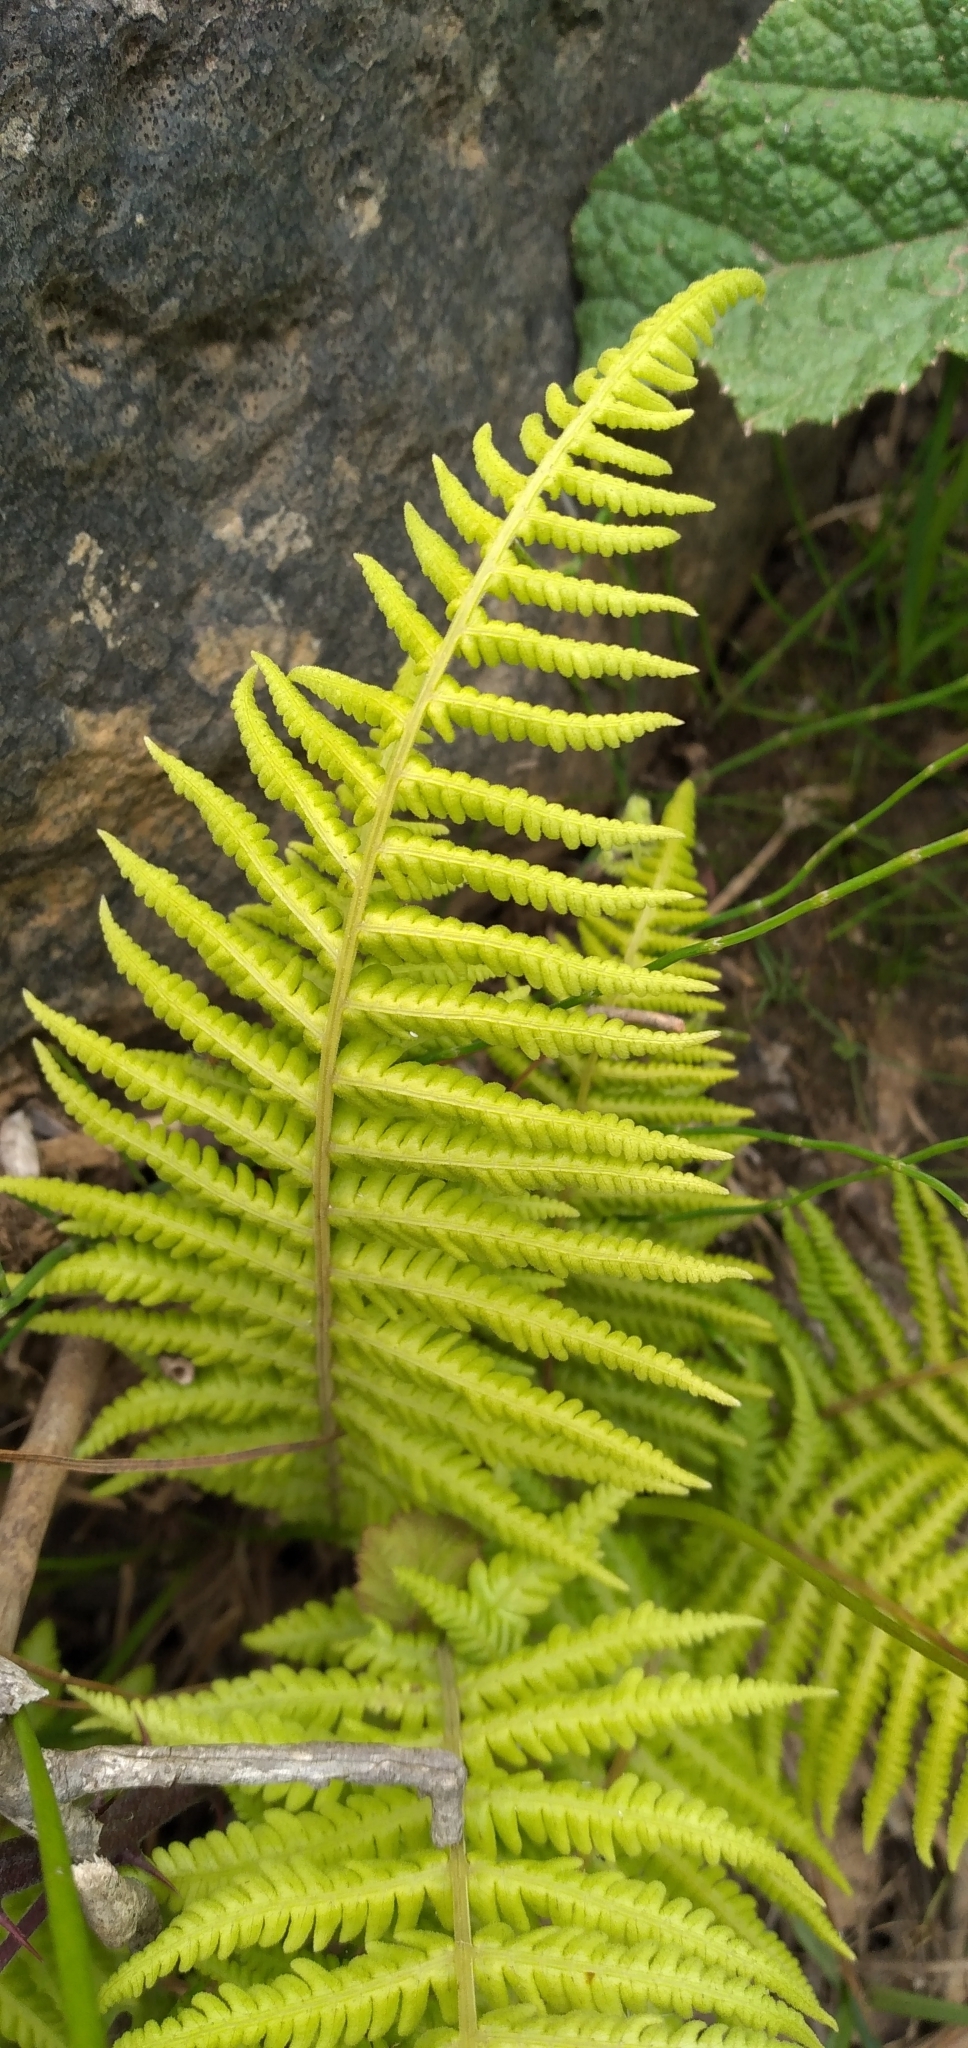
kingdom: Plantae
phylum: Tracheophyta
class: Polypodiopsida
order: Polypodiales
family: Thelypteridaceae
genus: Amauropelta
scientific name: Amauropelta argentina
